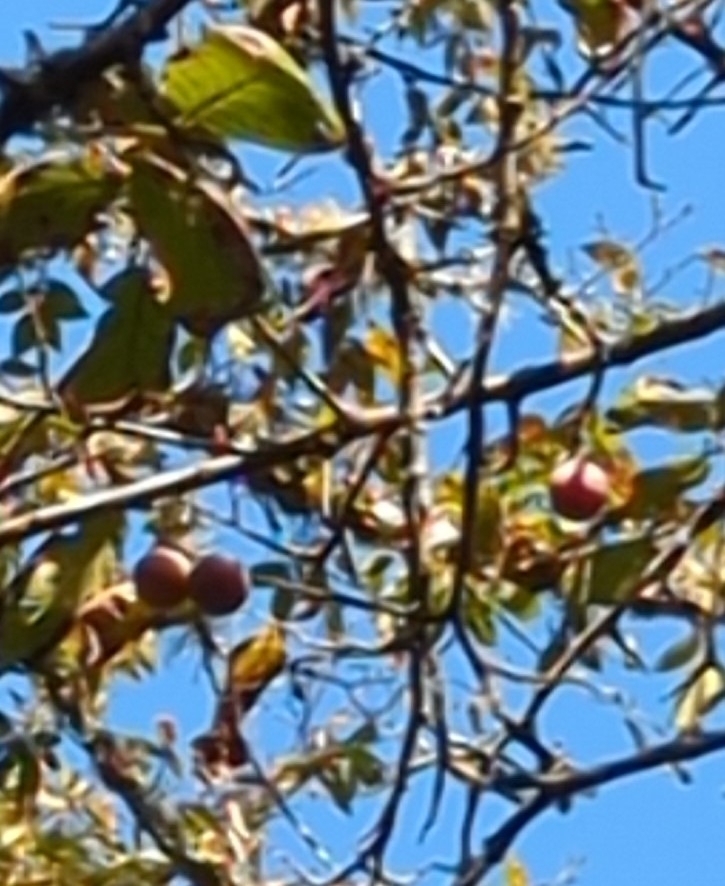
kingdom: Plantae
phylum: Tracheophyta
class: Magnoliopsida
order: Rosales
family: Rosaceae
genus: Prunus
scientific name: Prunus mexicana
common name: Mexican plum
